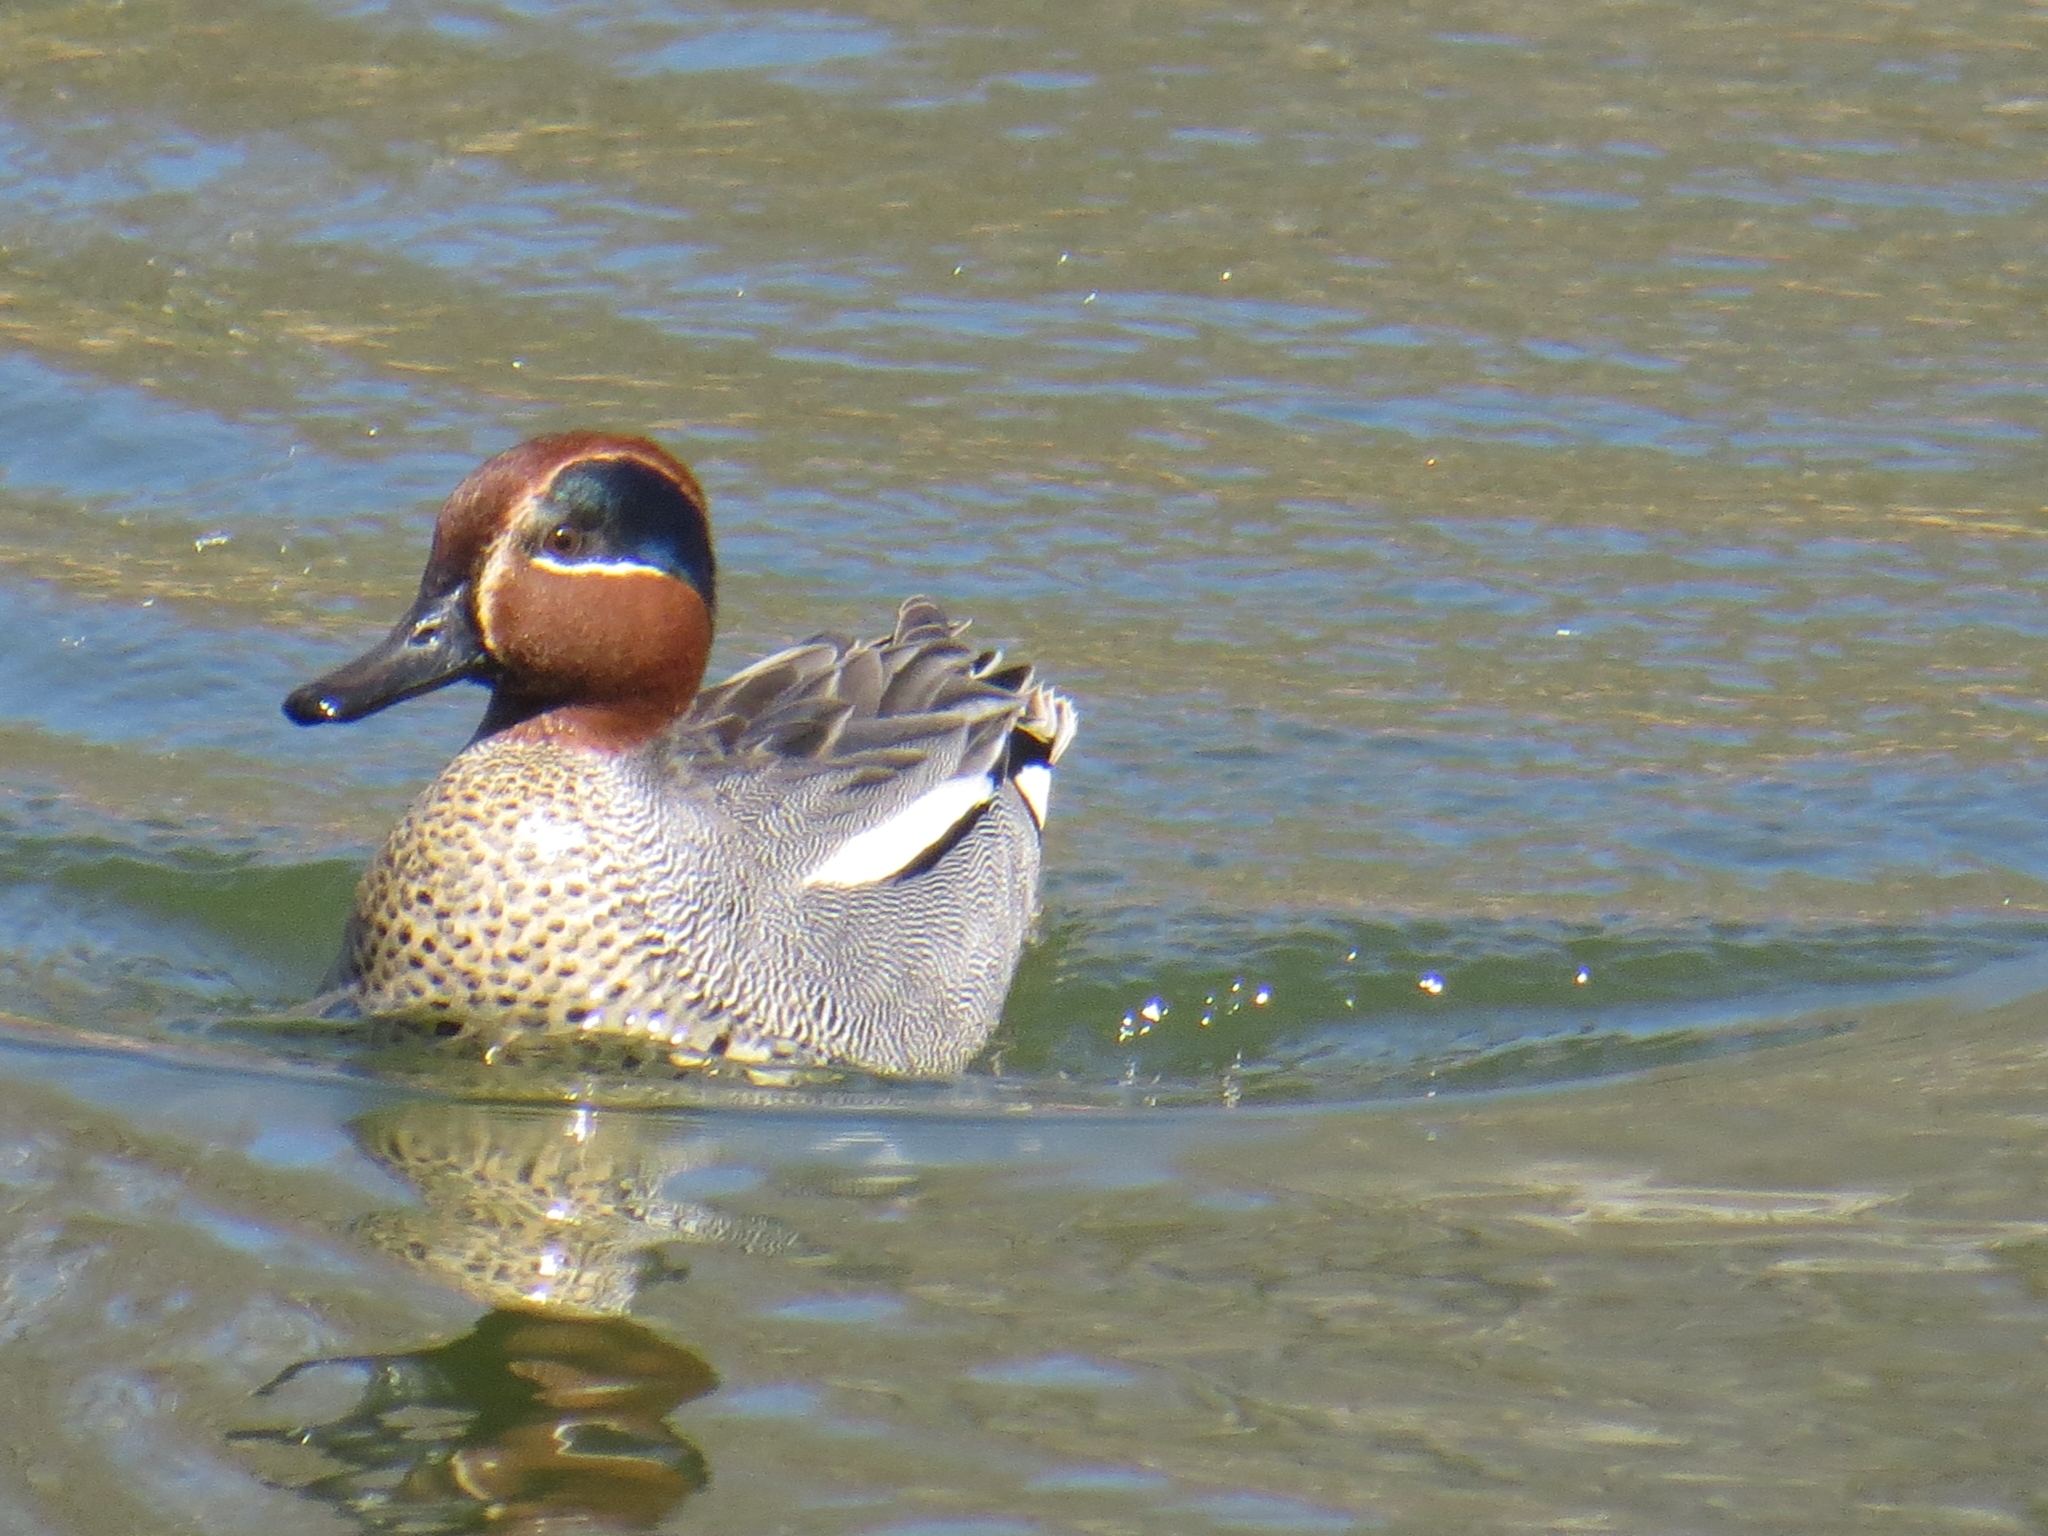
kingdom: Animalia
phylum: Chordata
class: Aves
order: Anseriformes
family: Anatidae
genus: Anas
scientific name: Anas crecca
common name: Eurasian teal
